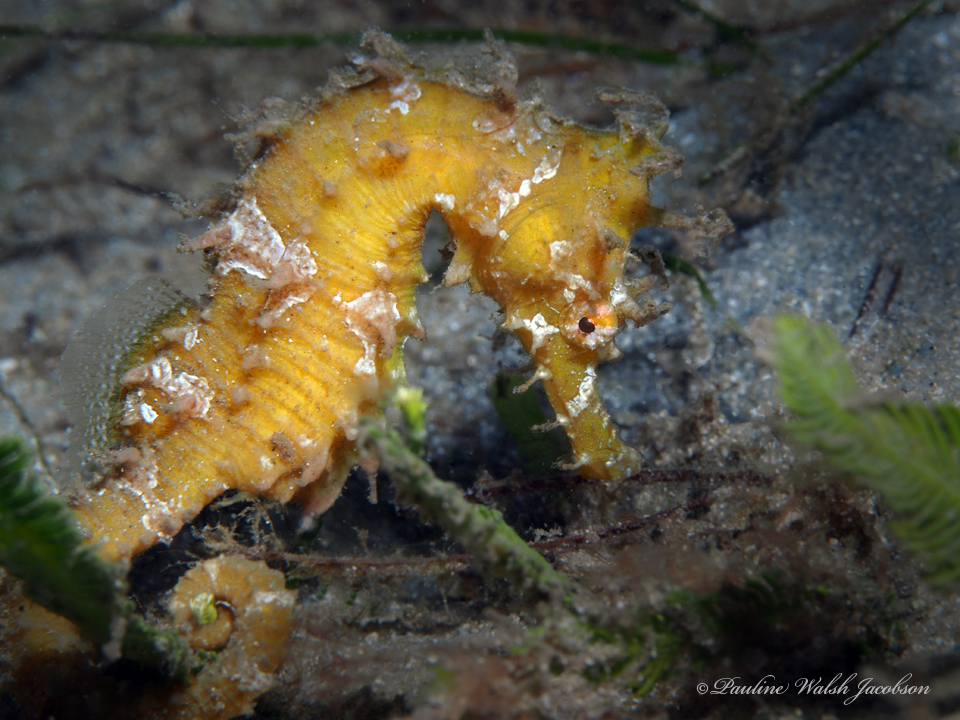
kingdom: Animalia
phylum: Chordata
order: Syngnathiformes
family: Syngnathidae
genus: Hippocampus
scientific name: Hippocampus erectus
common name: Lined seahorse
